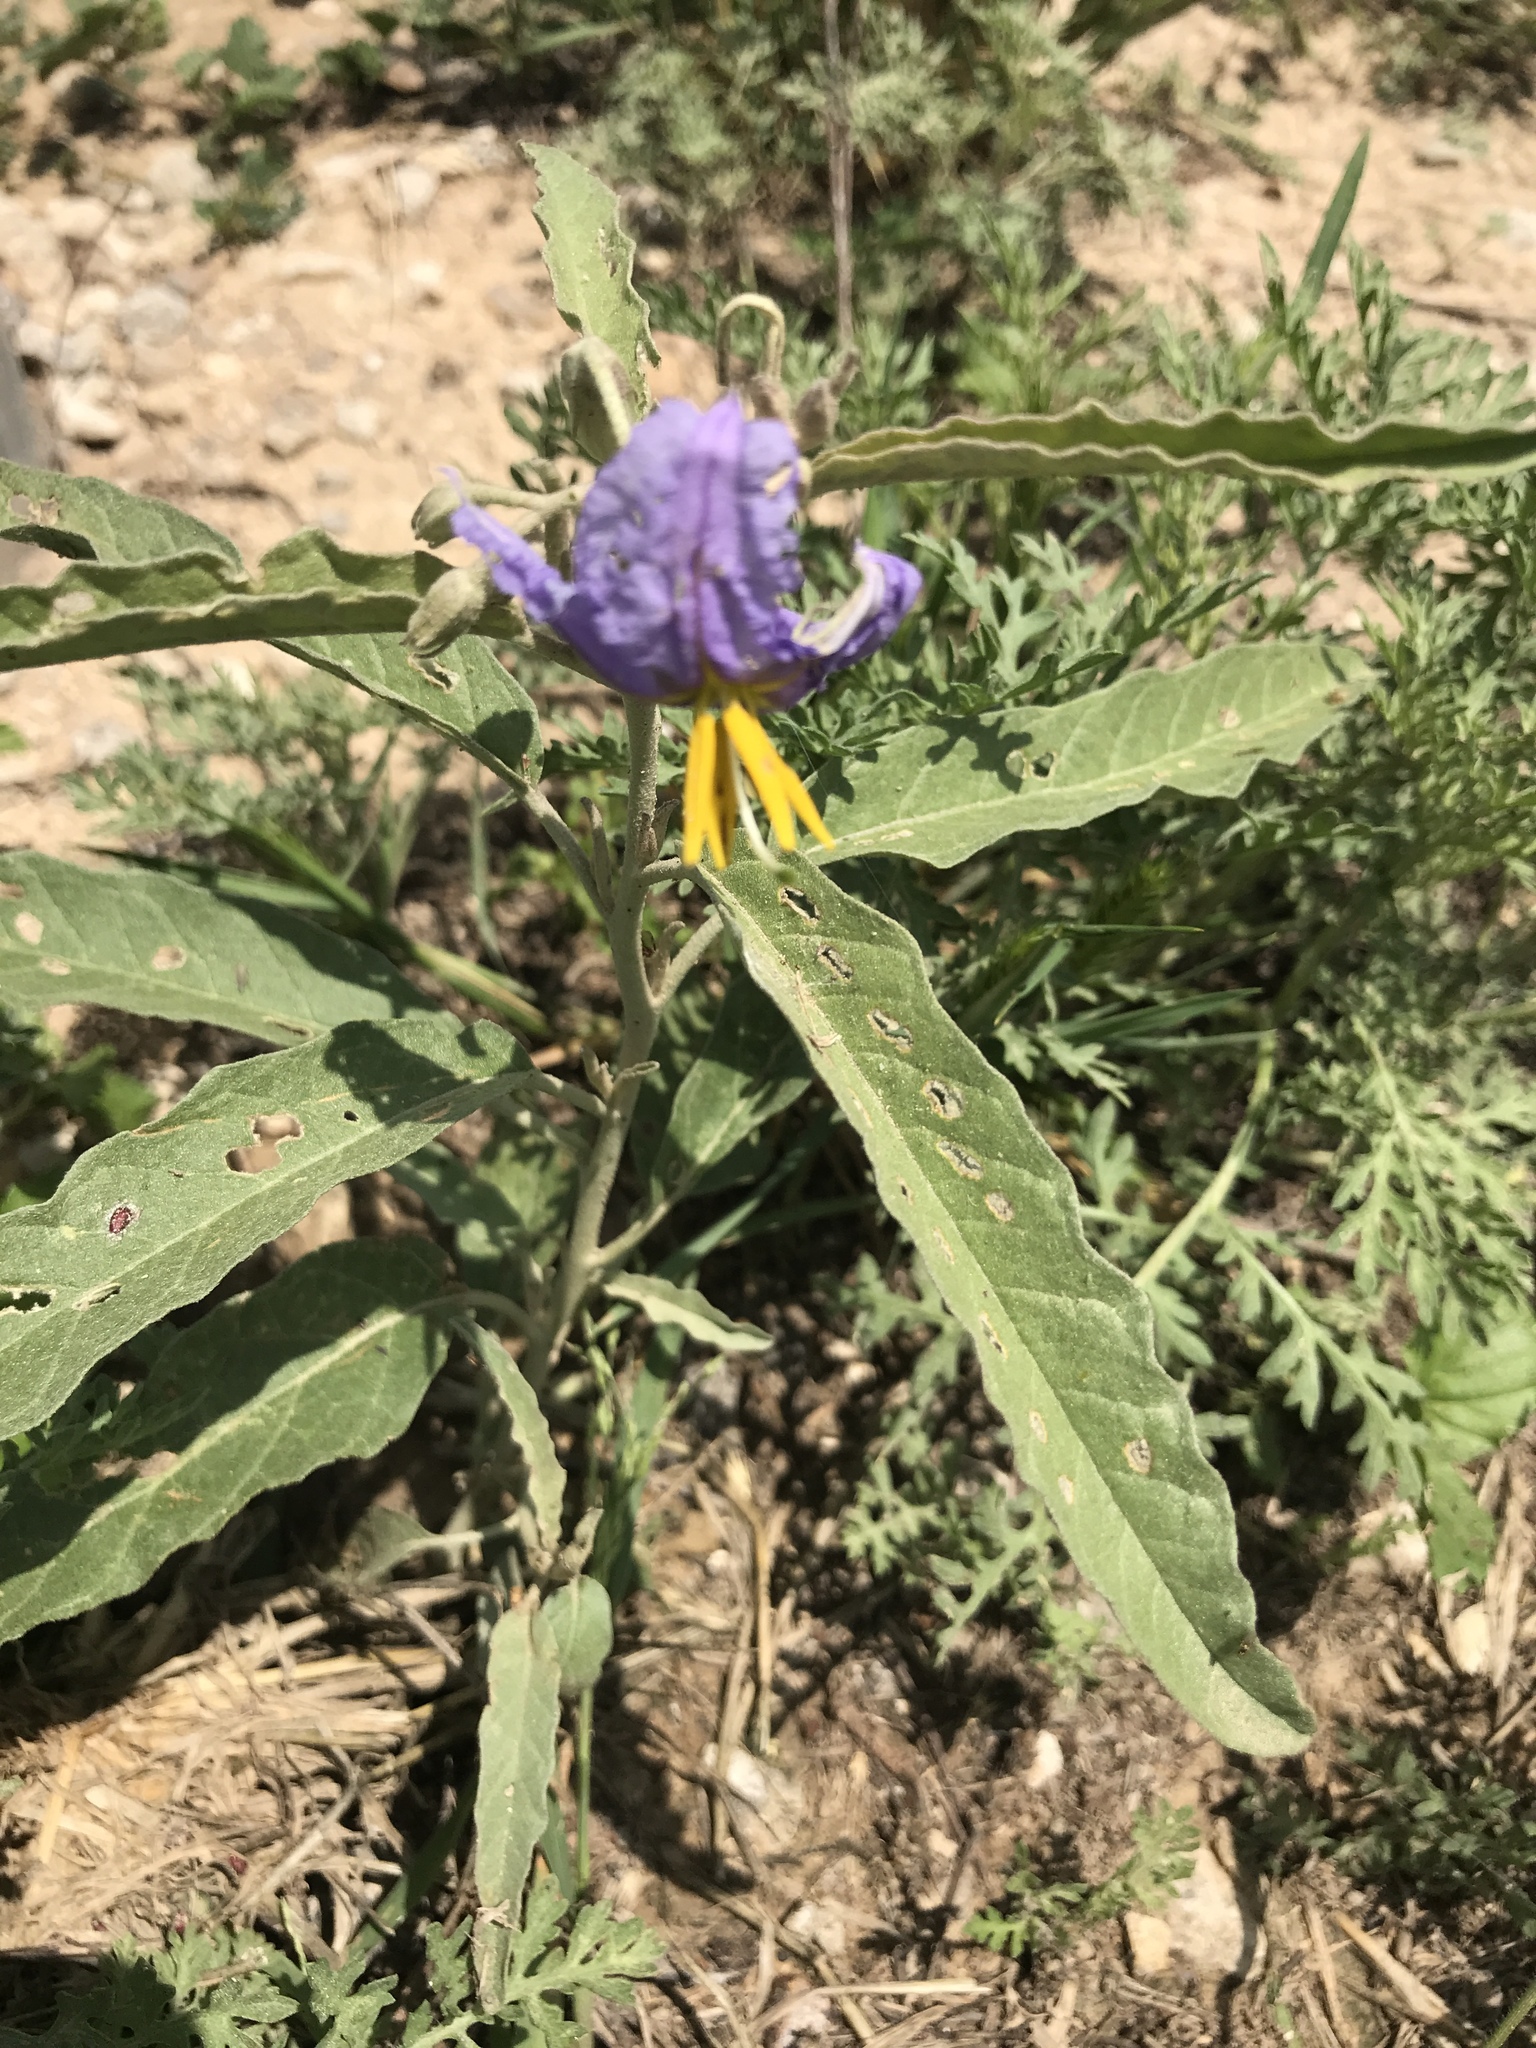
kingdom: Plantae
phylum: Tracheophyta
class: Magnoliopsida
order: Solanales
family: Solanaceae
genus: Solanum
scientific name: Solanum elaeagnifolium
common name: Silverleaf nightshade
